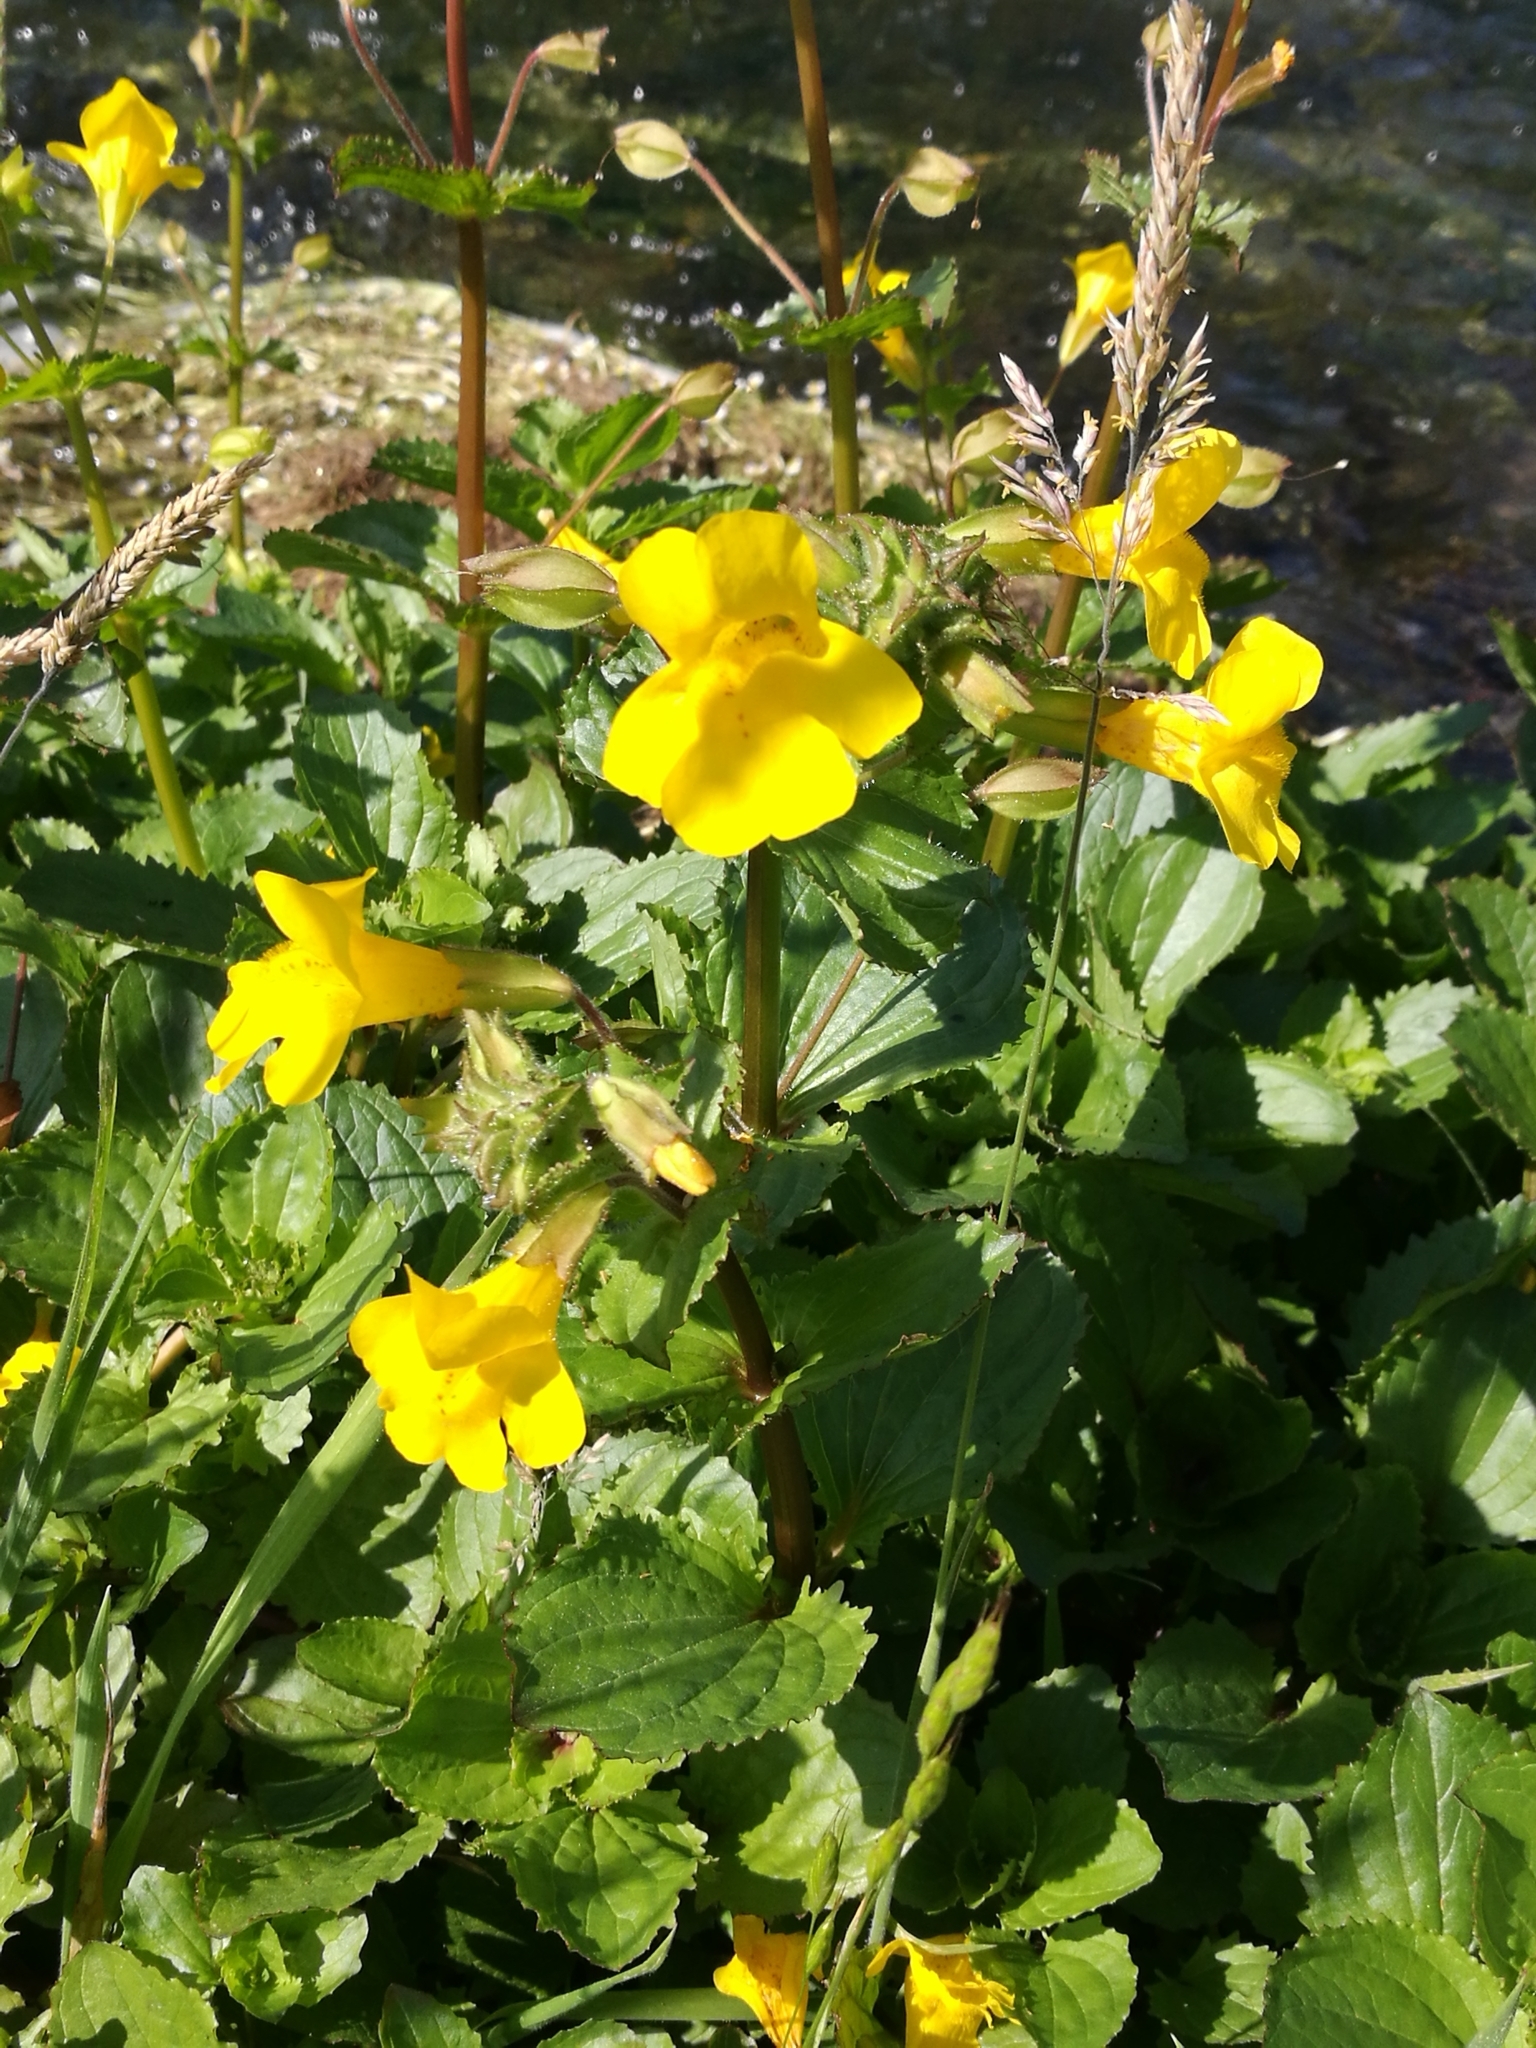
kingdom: Plantae
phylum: Tracheophyta
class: Magnoliopsida
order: Lamiales
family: Phrymaceae
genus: Erythranthe
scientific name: Erythranthe guttata
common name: Monkeyflower
